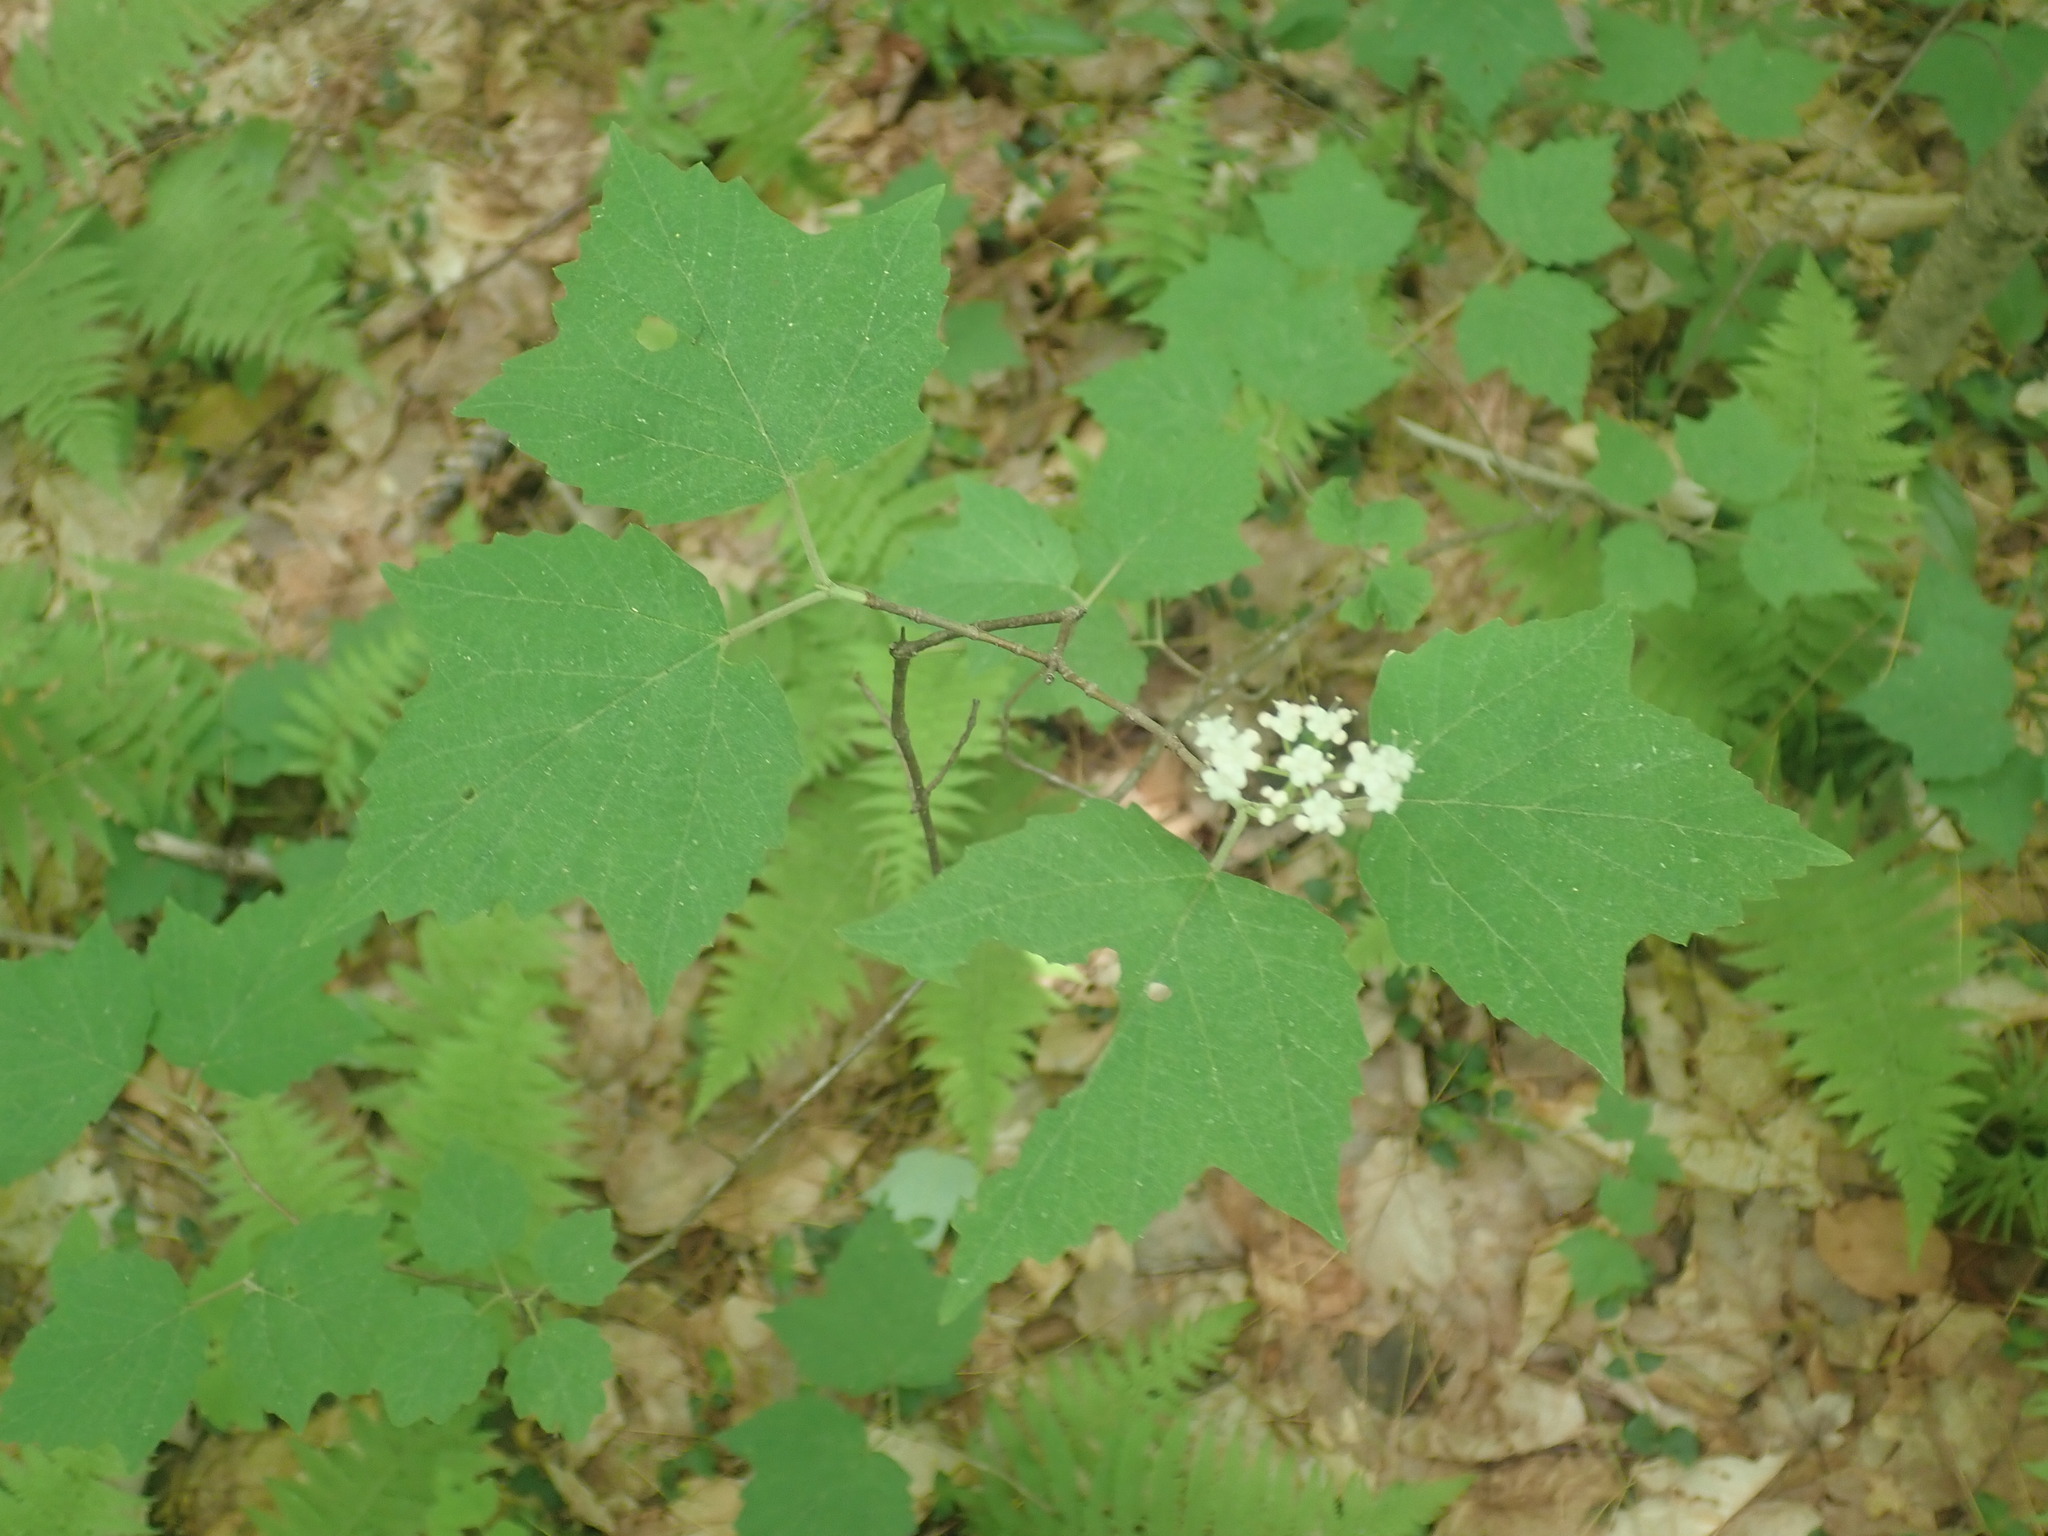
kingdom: Plantae
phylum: Tracheophyta
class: Magnoliopsida
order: Dipsacales
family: Viburnaceae
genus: Viburnum
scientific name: Viburnum acerifolium
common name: Dockmackie
